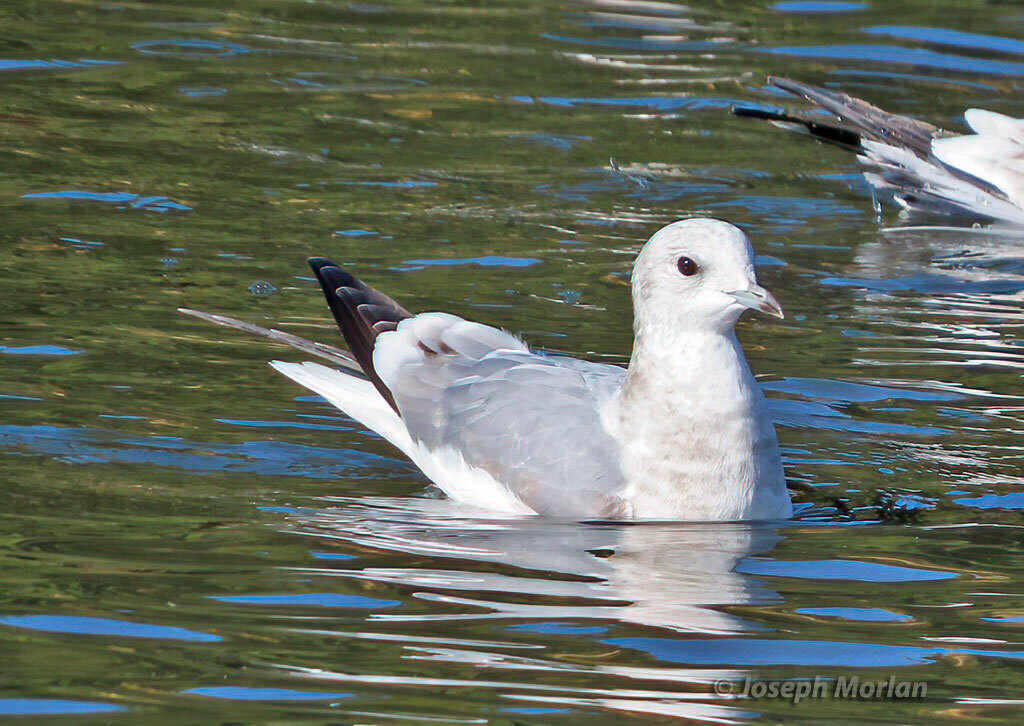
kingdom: Animalia
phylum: Chordata
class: Aves
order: Charadriiformes
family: Laridae
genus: Larus
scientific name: Larus brachyrhynchus
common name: Short-billed gull
